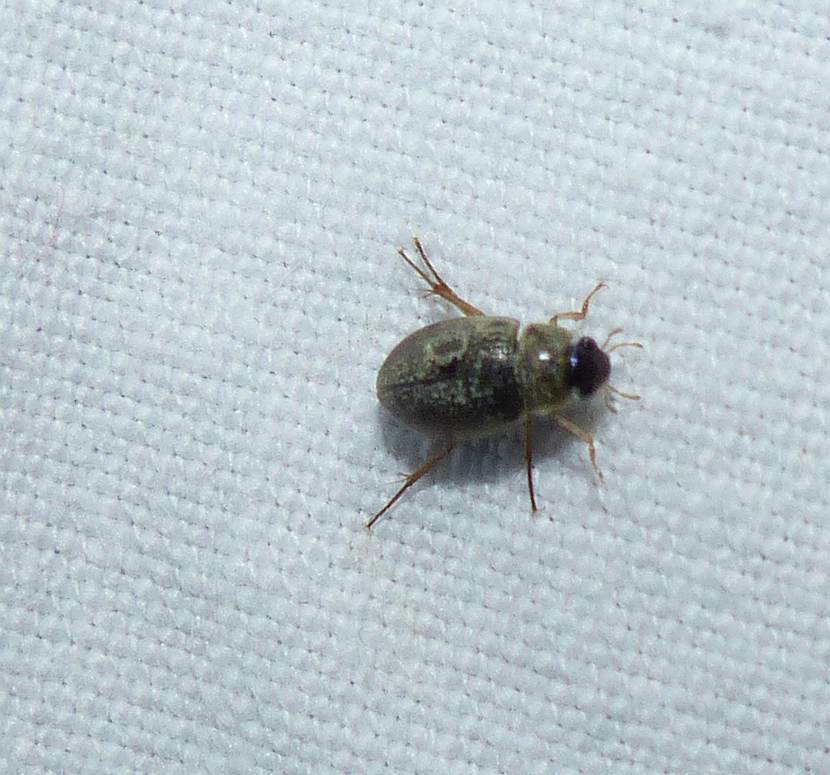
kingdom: Animalia
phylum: Arthropoda
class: Insecta
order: Coleoptera
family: Hydrophilidae
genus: Berosus
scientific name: Berosus
